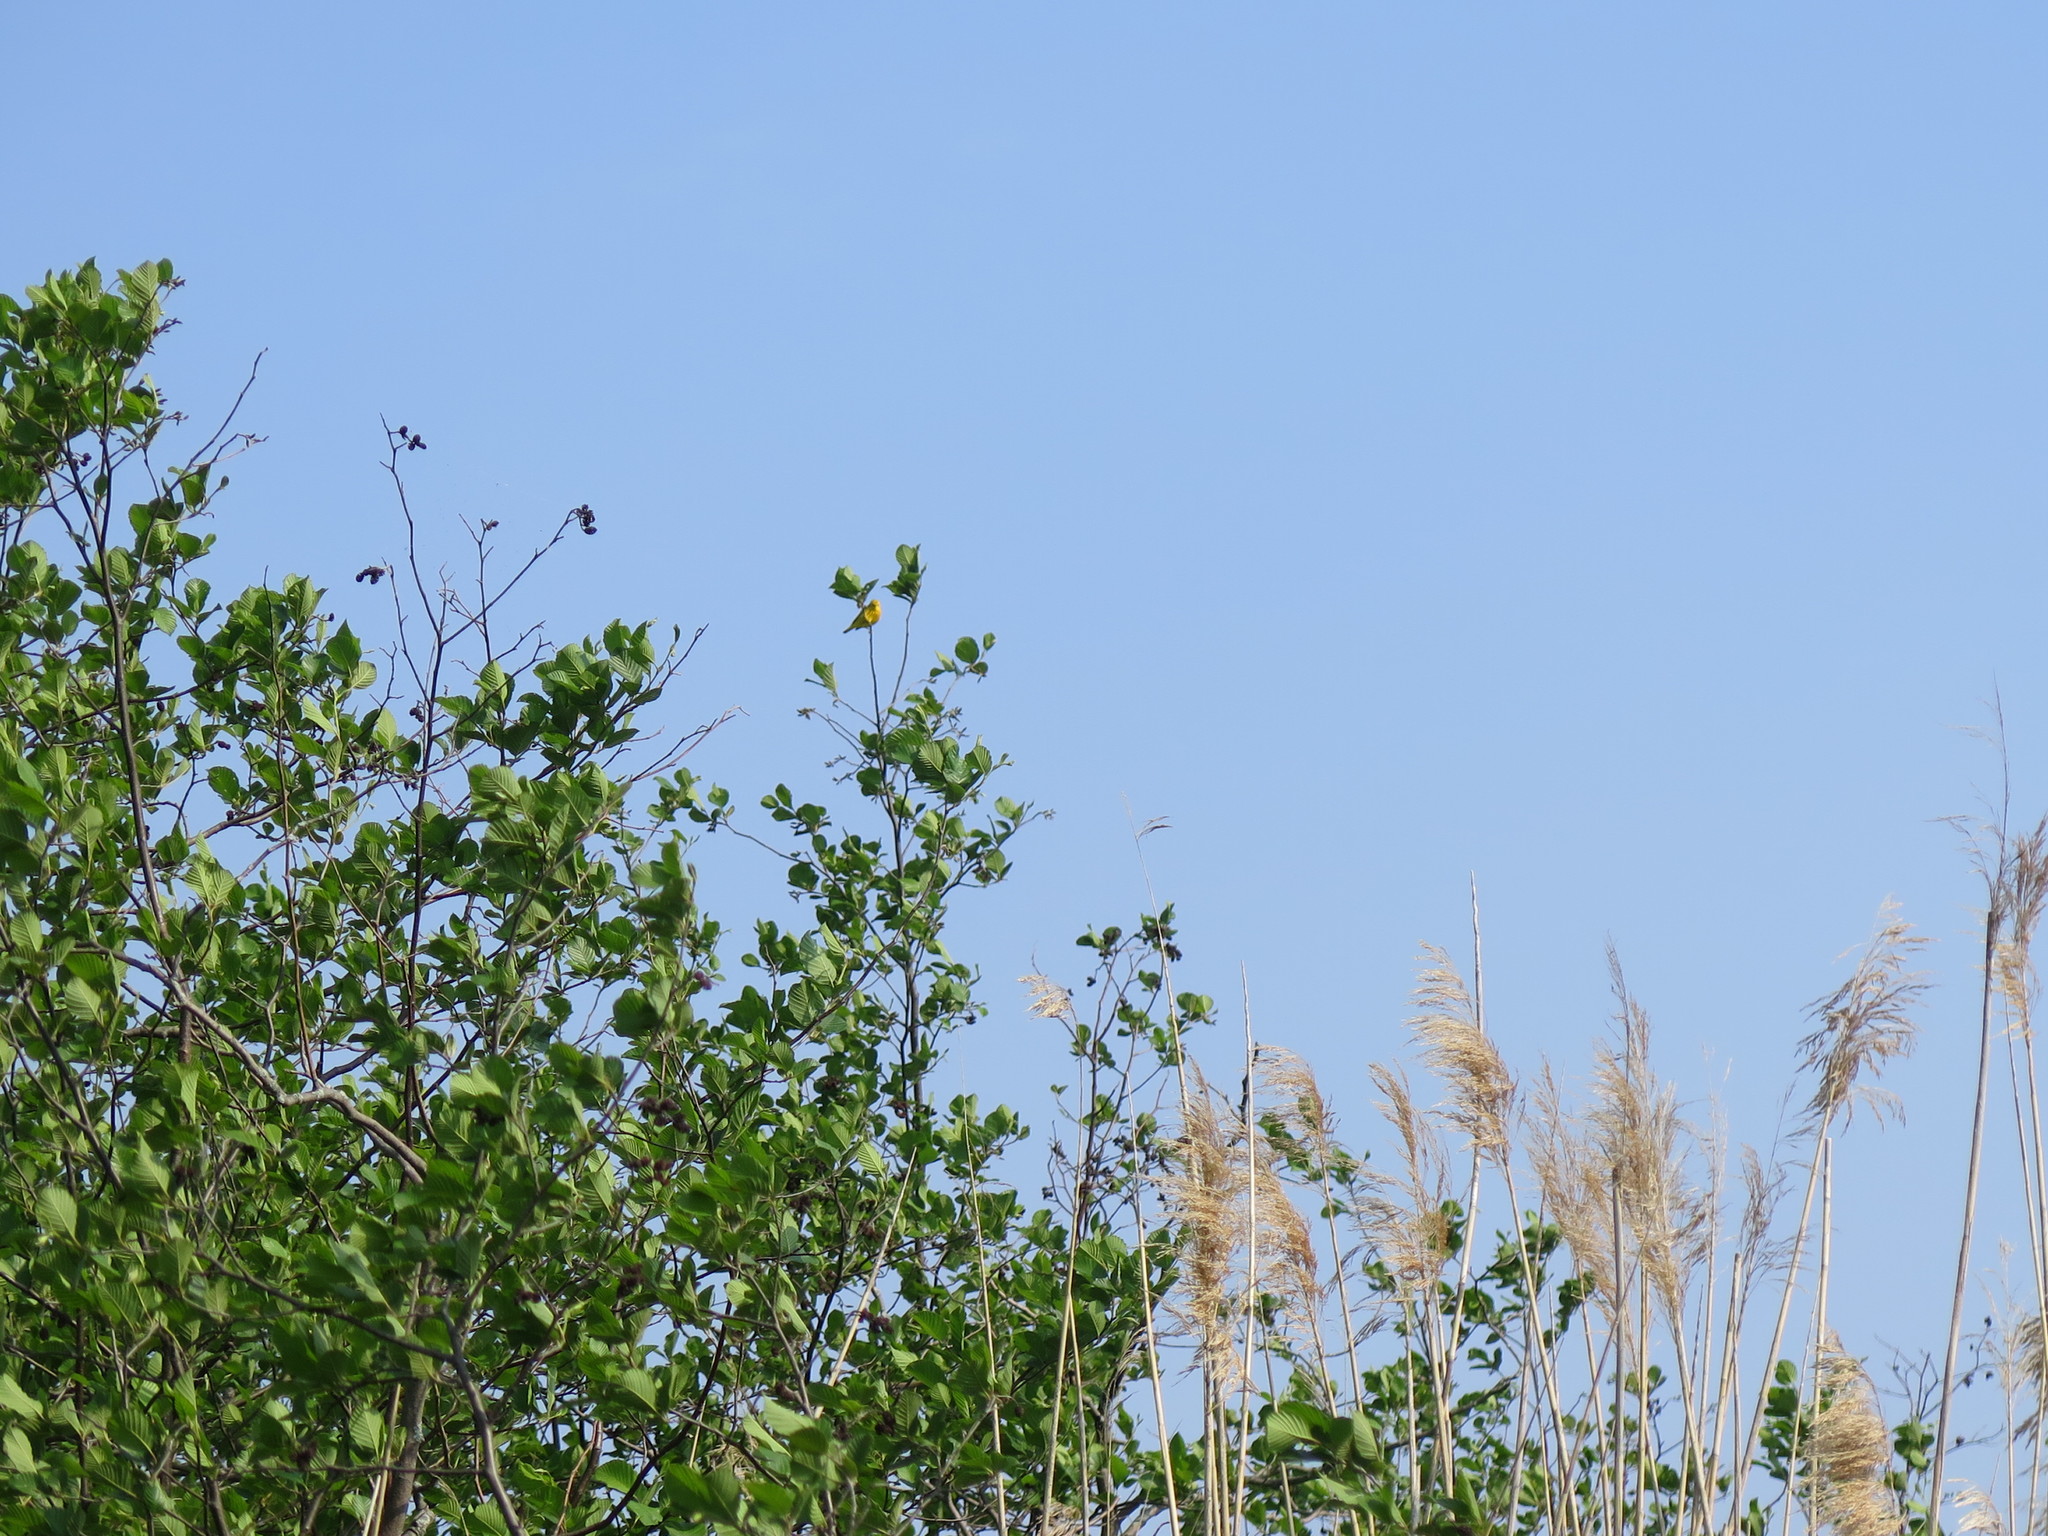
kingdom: Animalia
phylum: Chordata
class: Aves
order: Passeriformes
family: Parulidae
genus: Setophaga
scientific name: Setophaga petechia
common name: Yellow warbler
